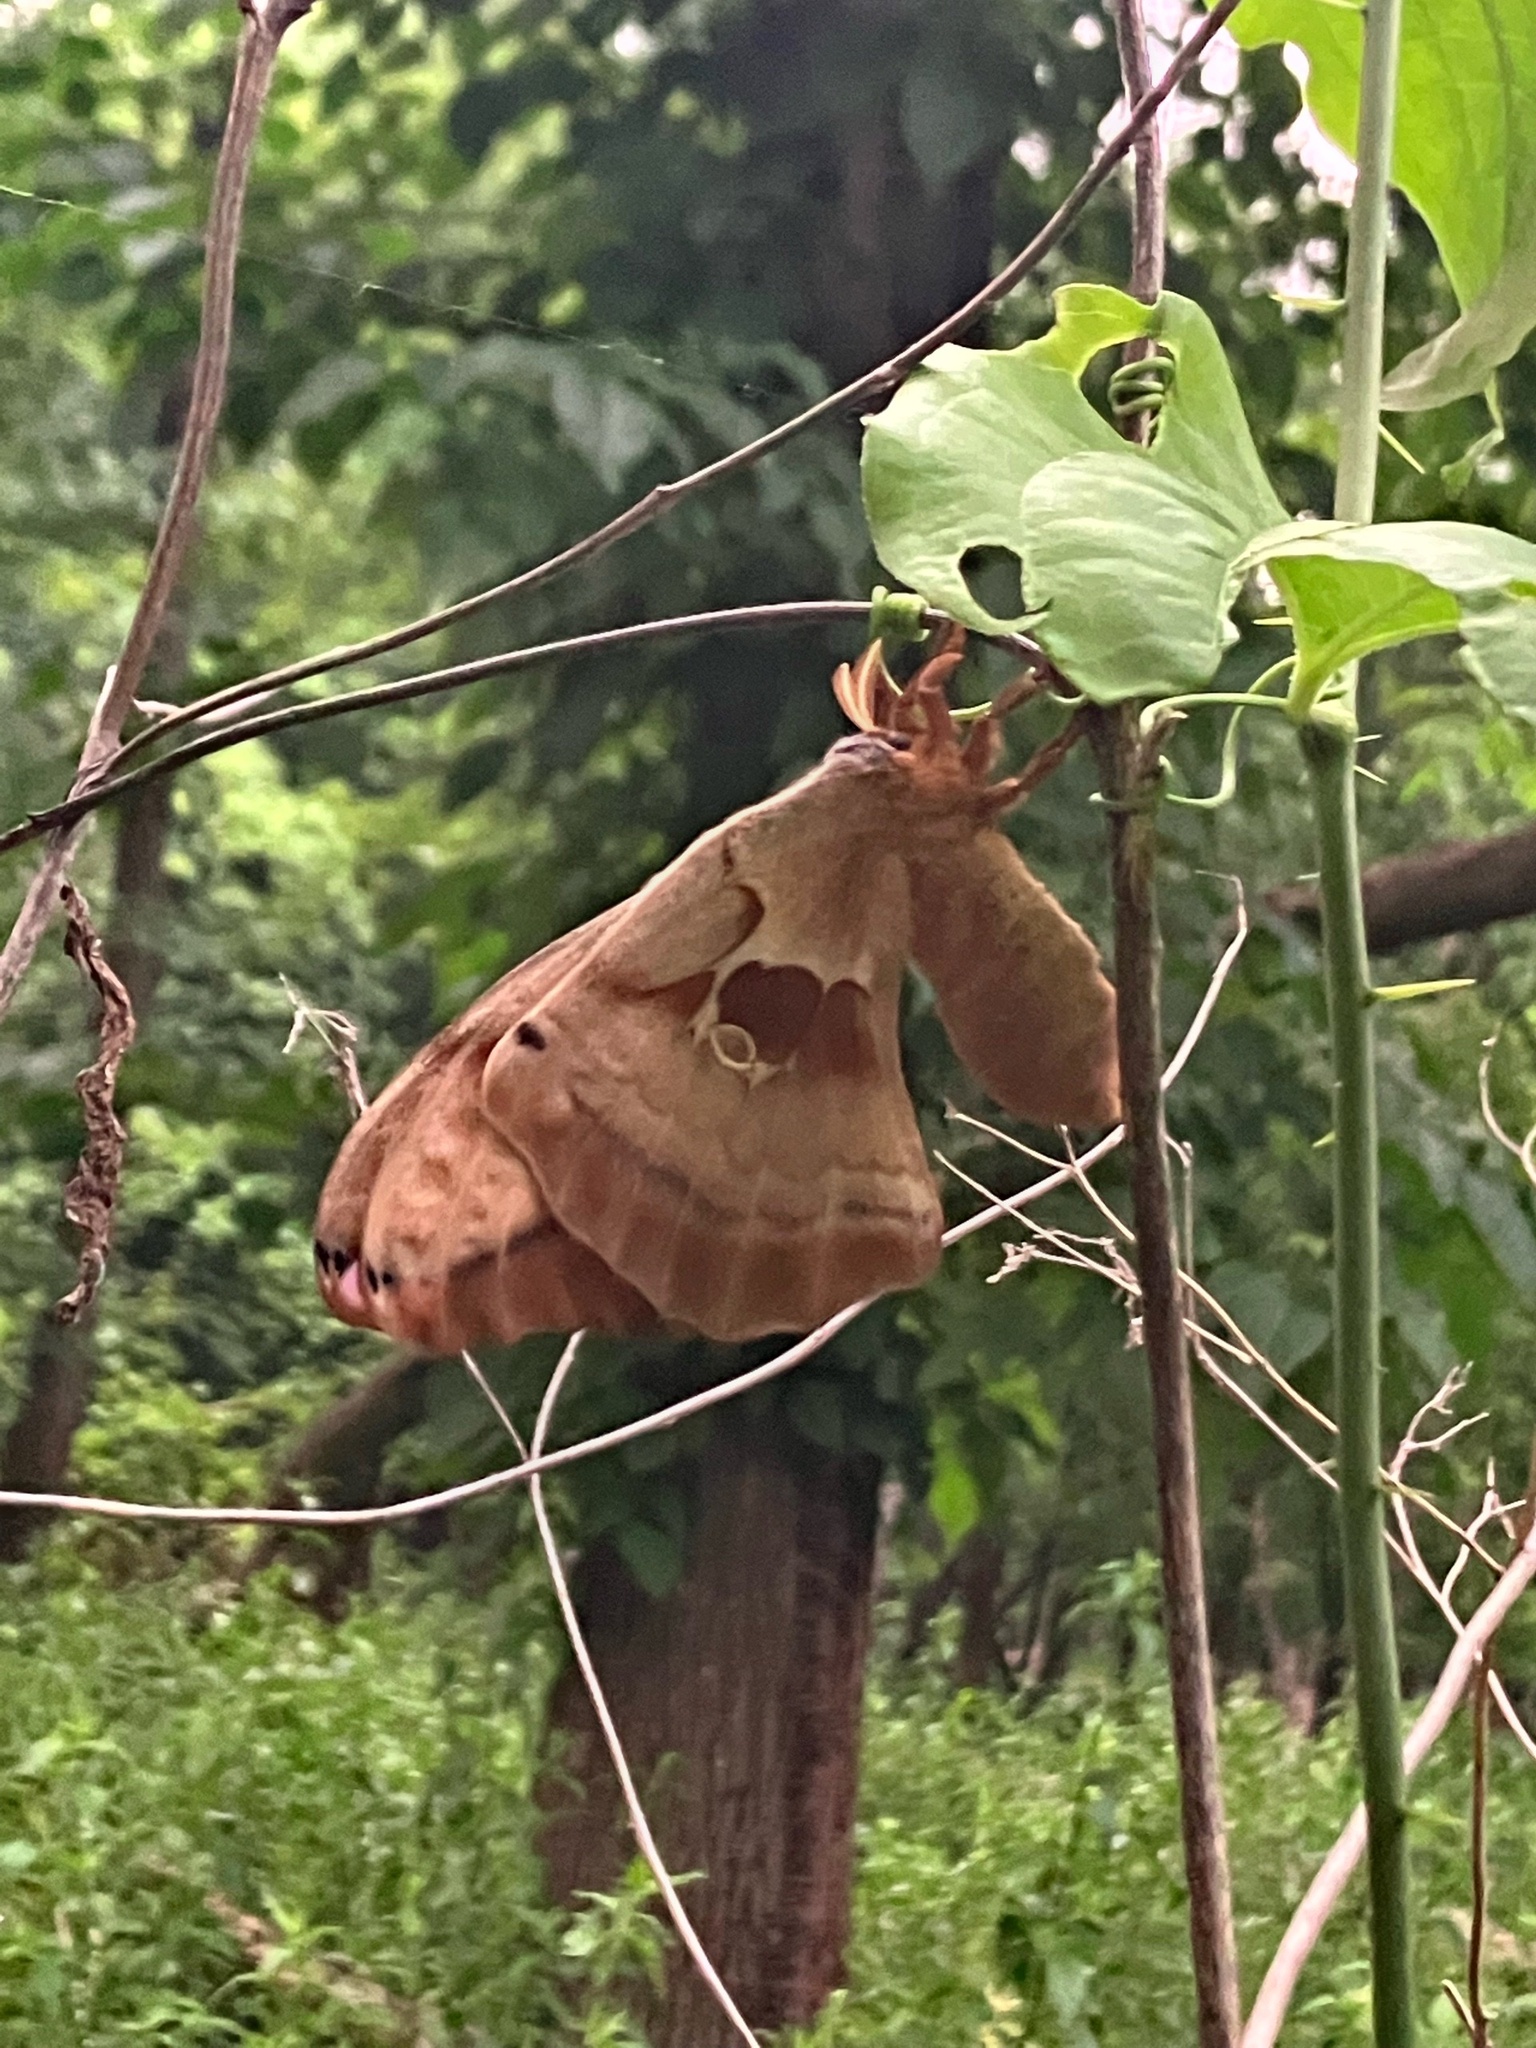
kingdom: Animalia
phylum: Arthropoda
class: Insecta
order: Lepidoptera
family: Saturniidae
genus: Antheraea
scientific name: Antheraea polyphemus
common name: Polyphemus moth
